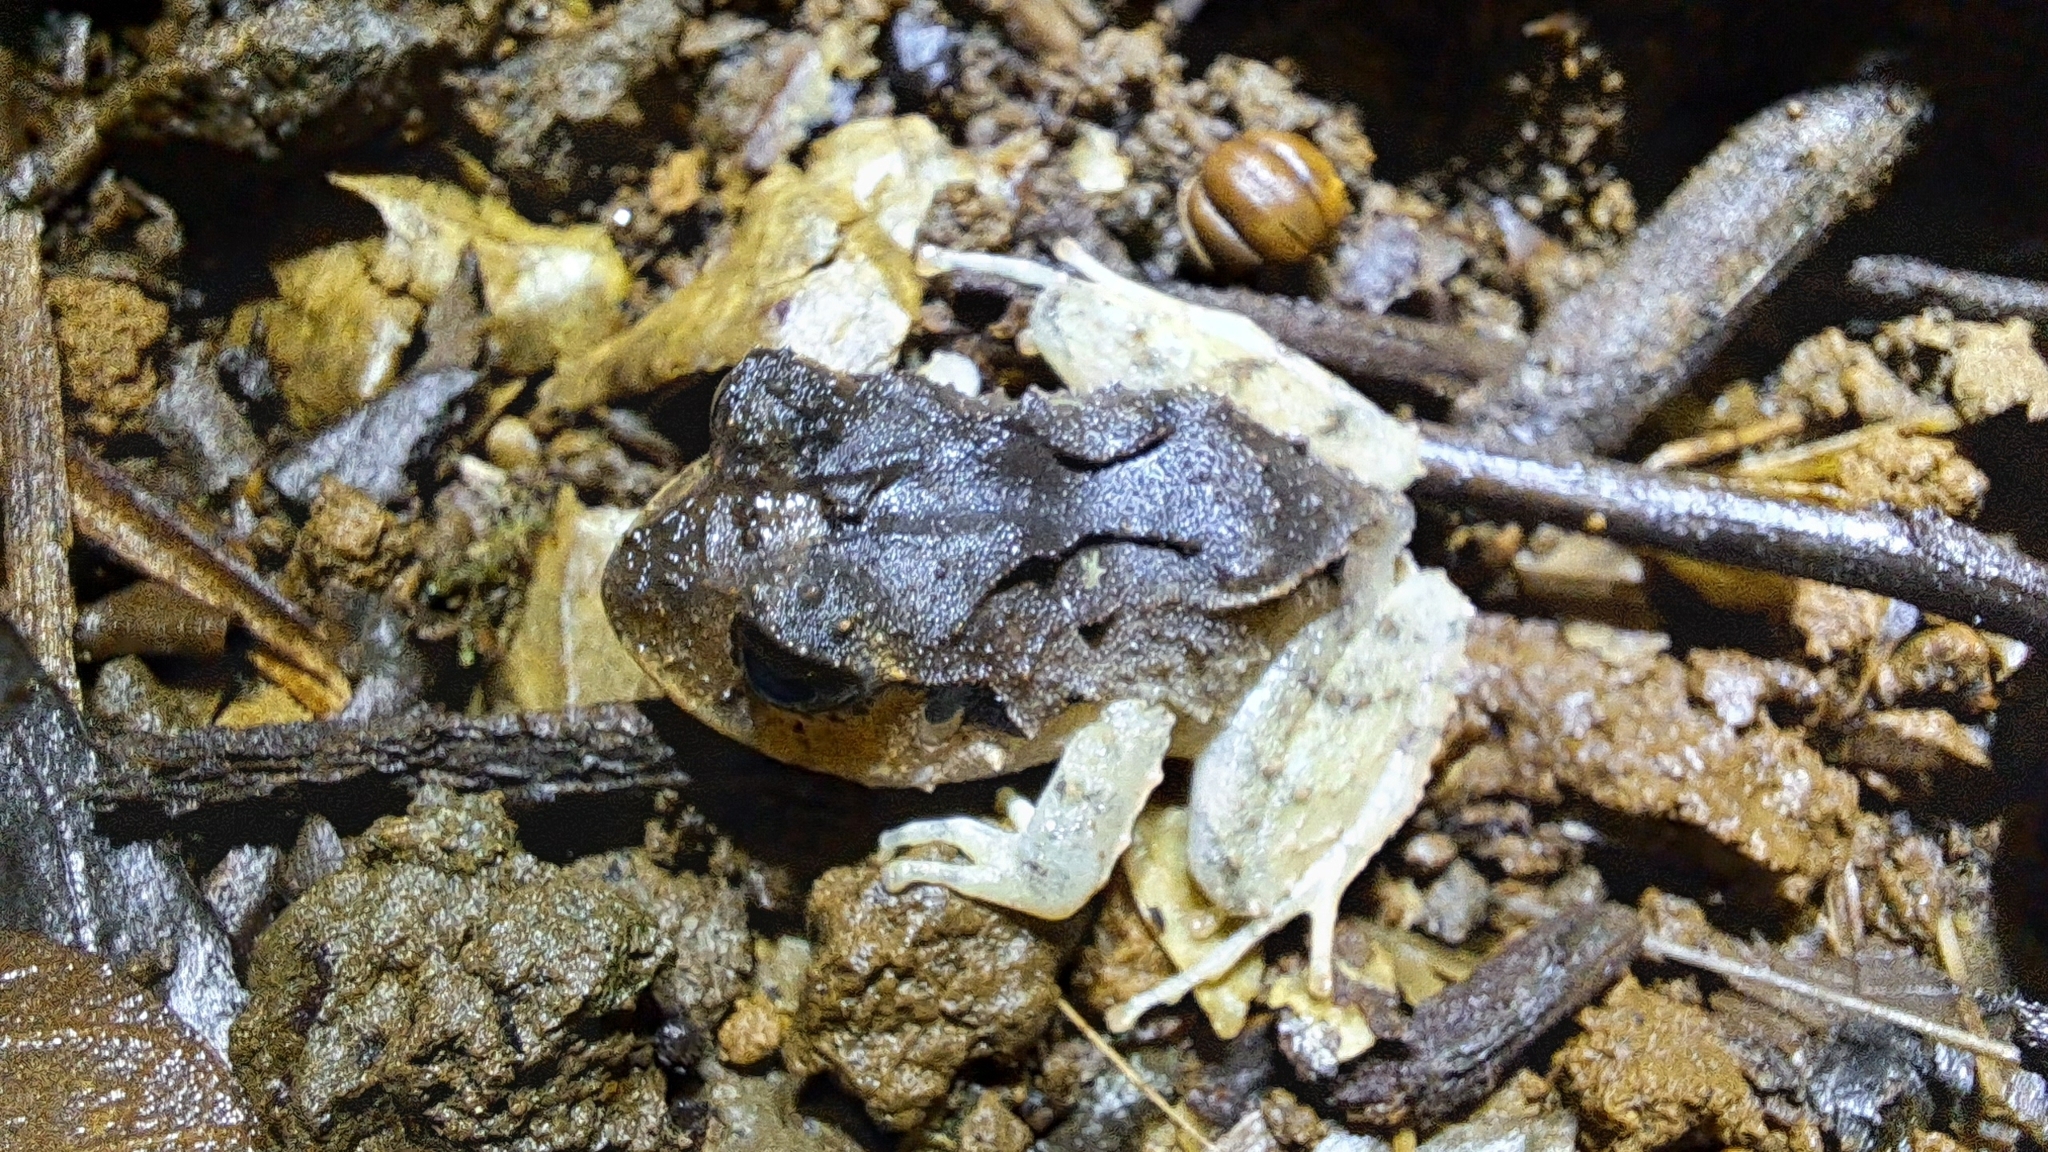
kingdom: Animalia
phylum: Chordata
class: Amphibia
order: Anura
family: Craugastoridae
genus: Craugastor
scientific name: Craugastor megacephalus
